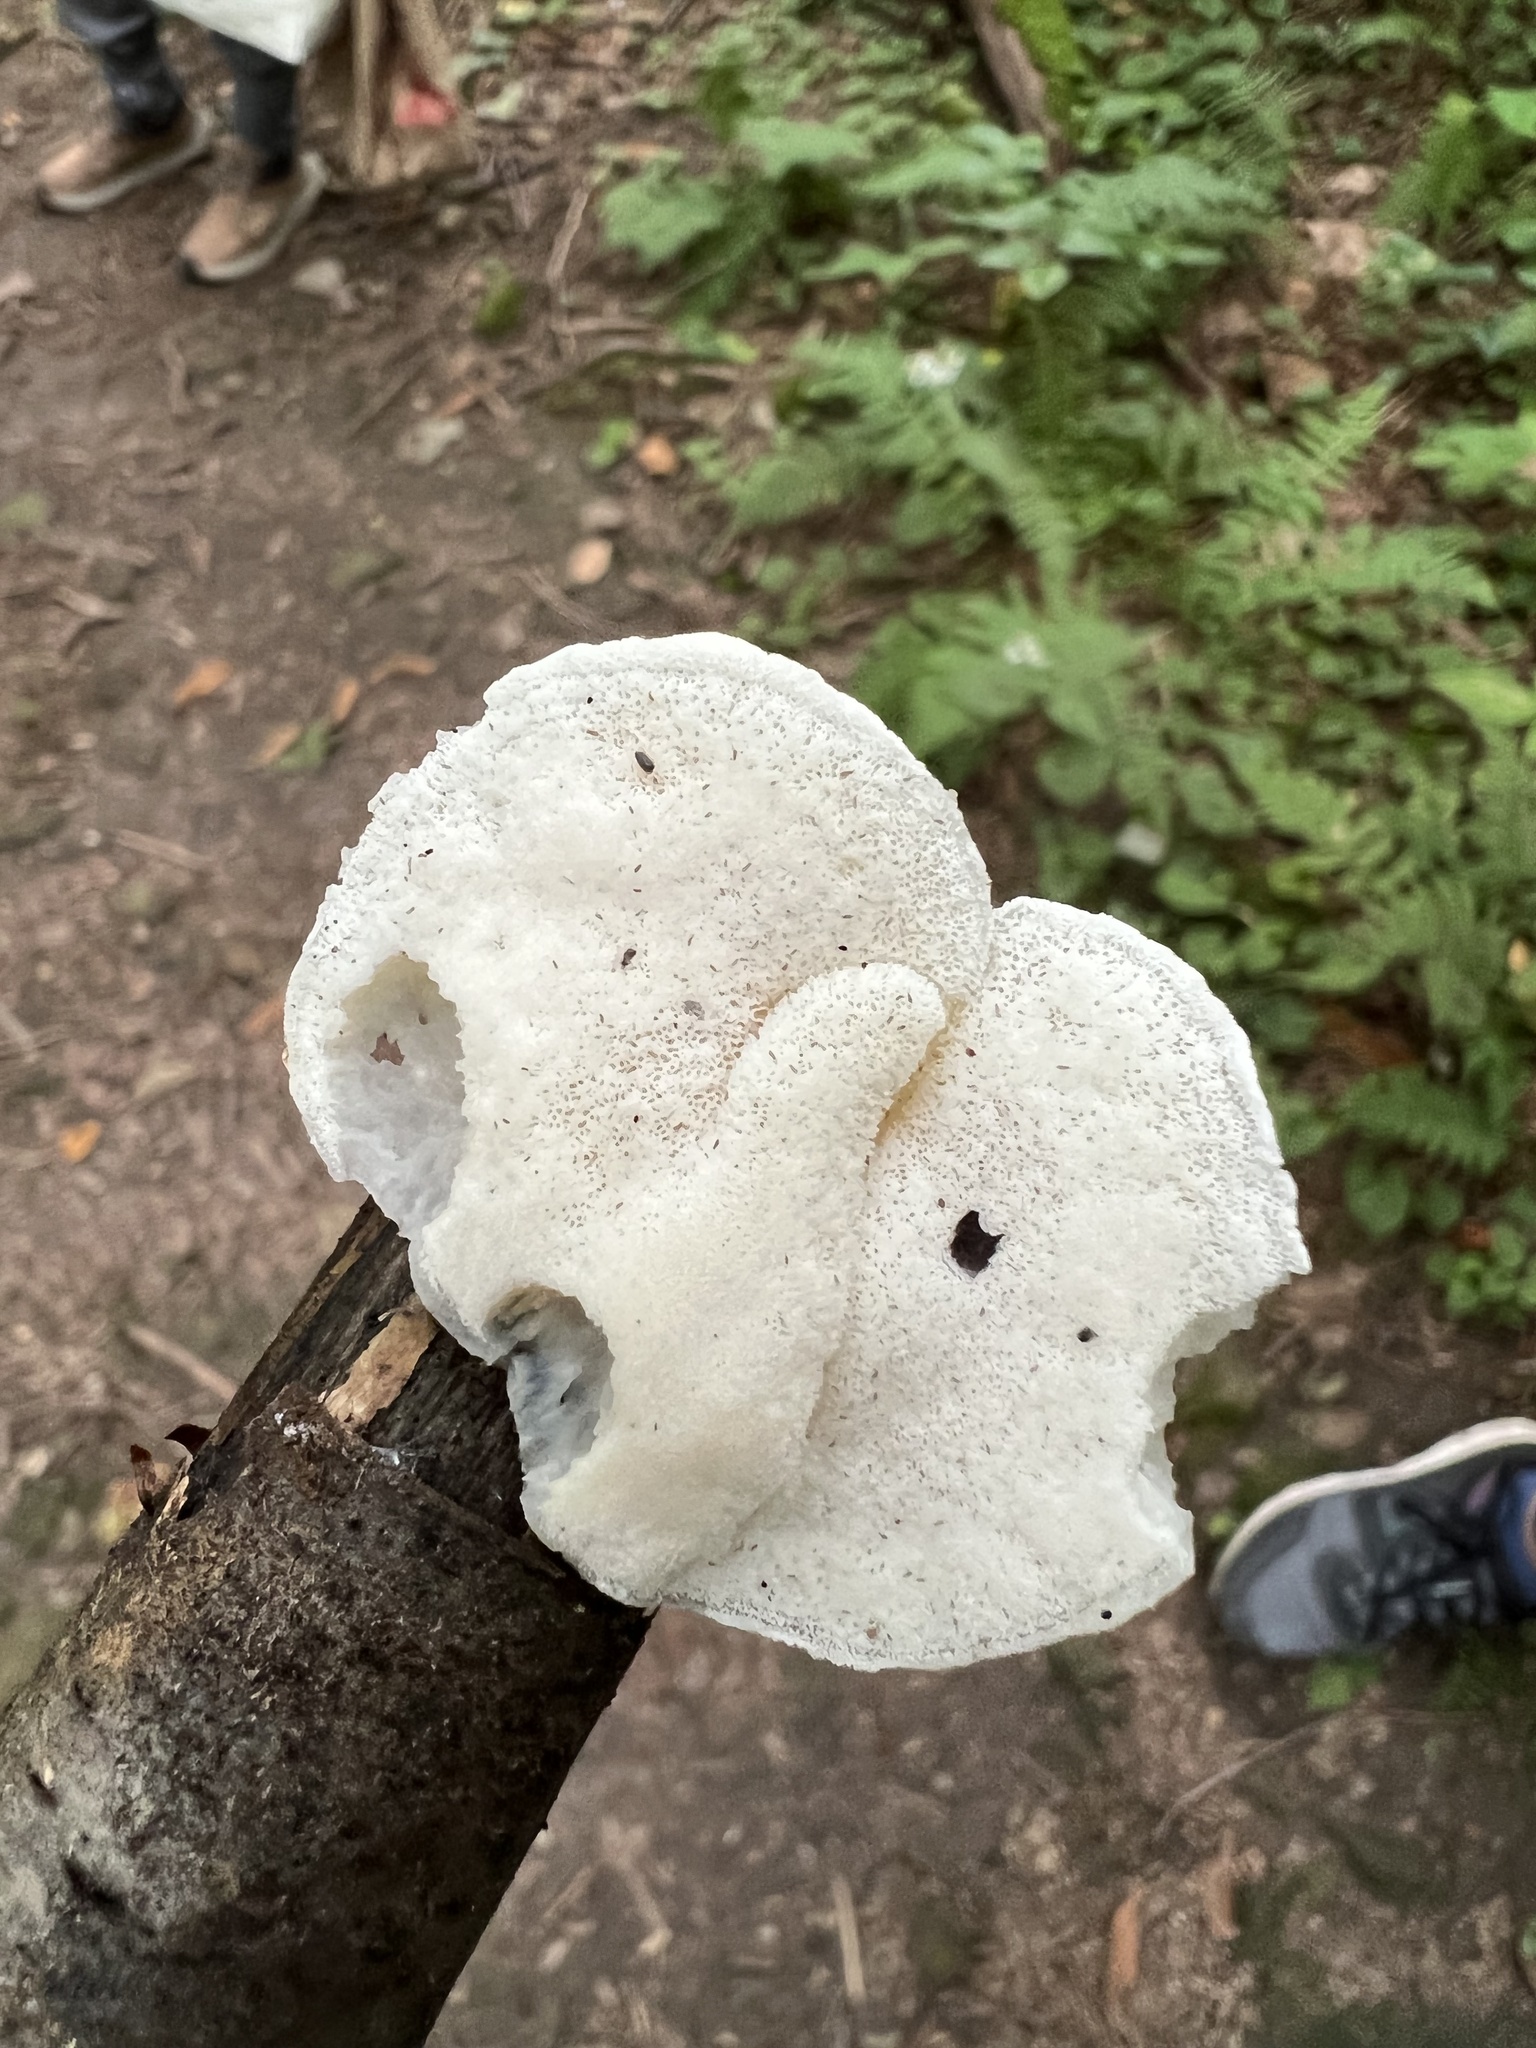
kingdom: Fungi
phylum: Basidiomycota
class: Agaricomycetes
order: Polyporales
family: Incrustoporiaceae
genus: Tyromyces
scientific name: Tyromyces chioneus
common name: White cheese polypore
